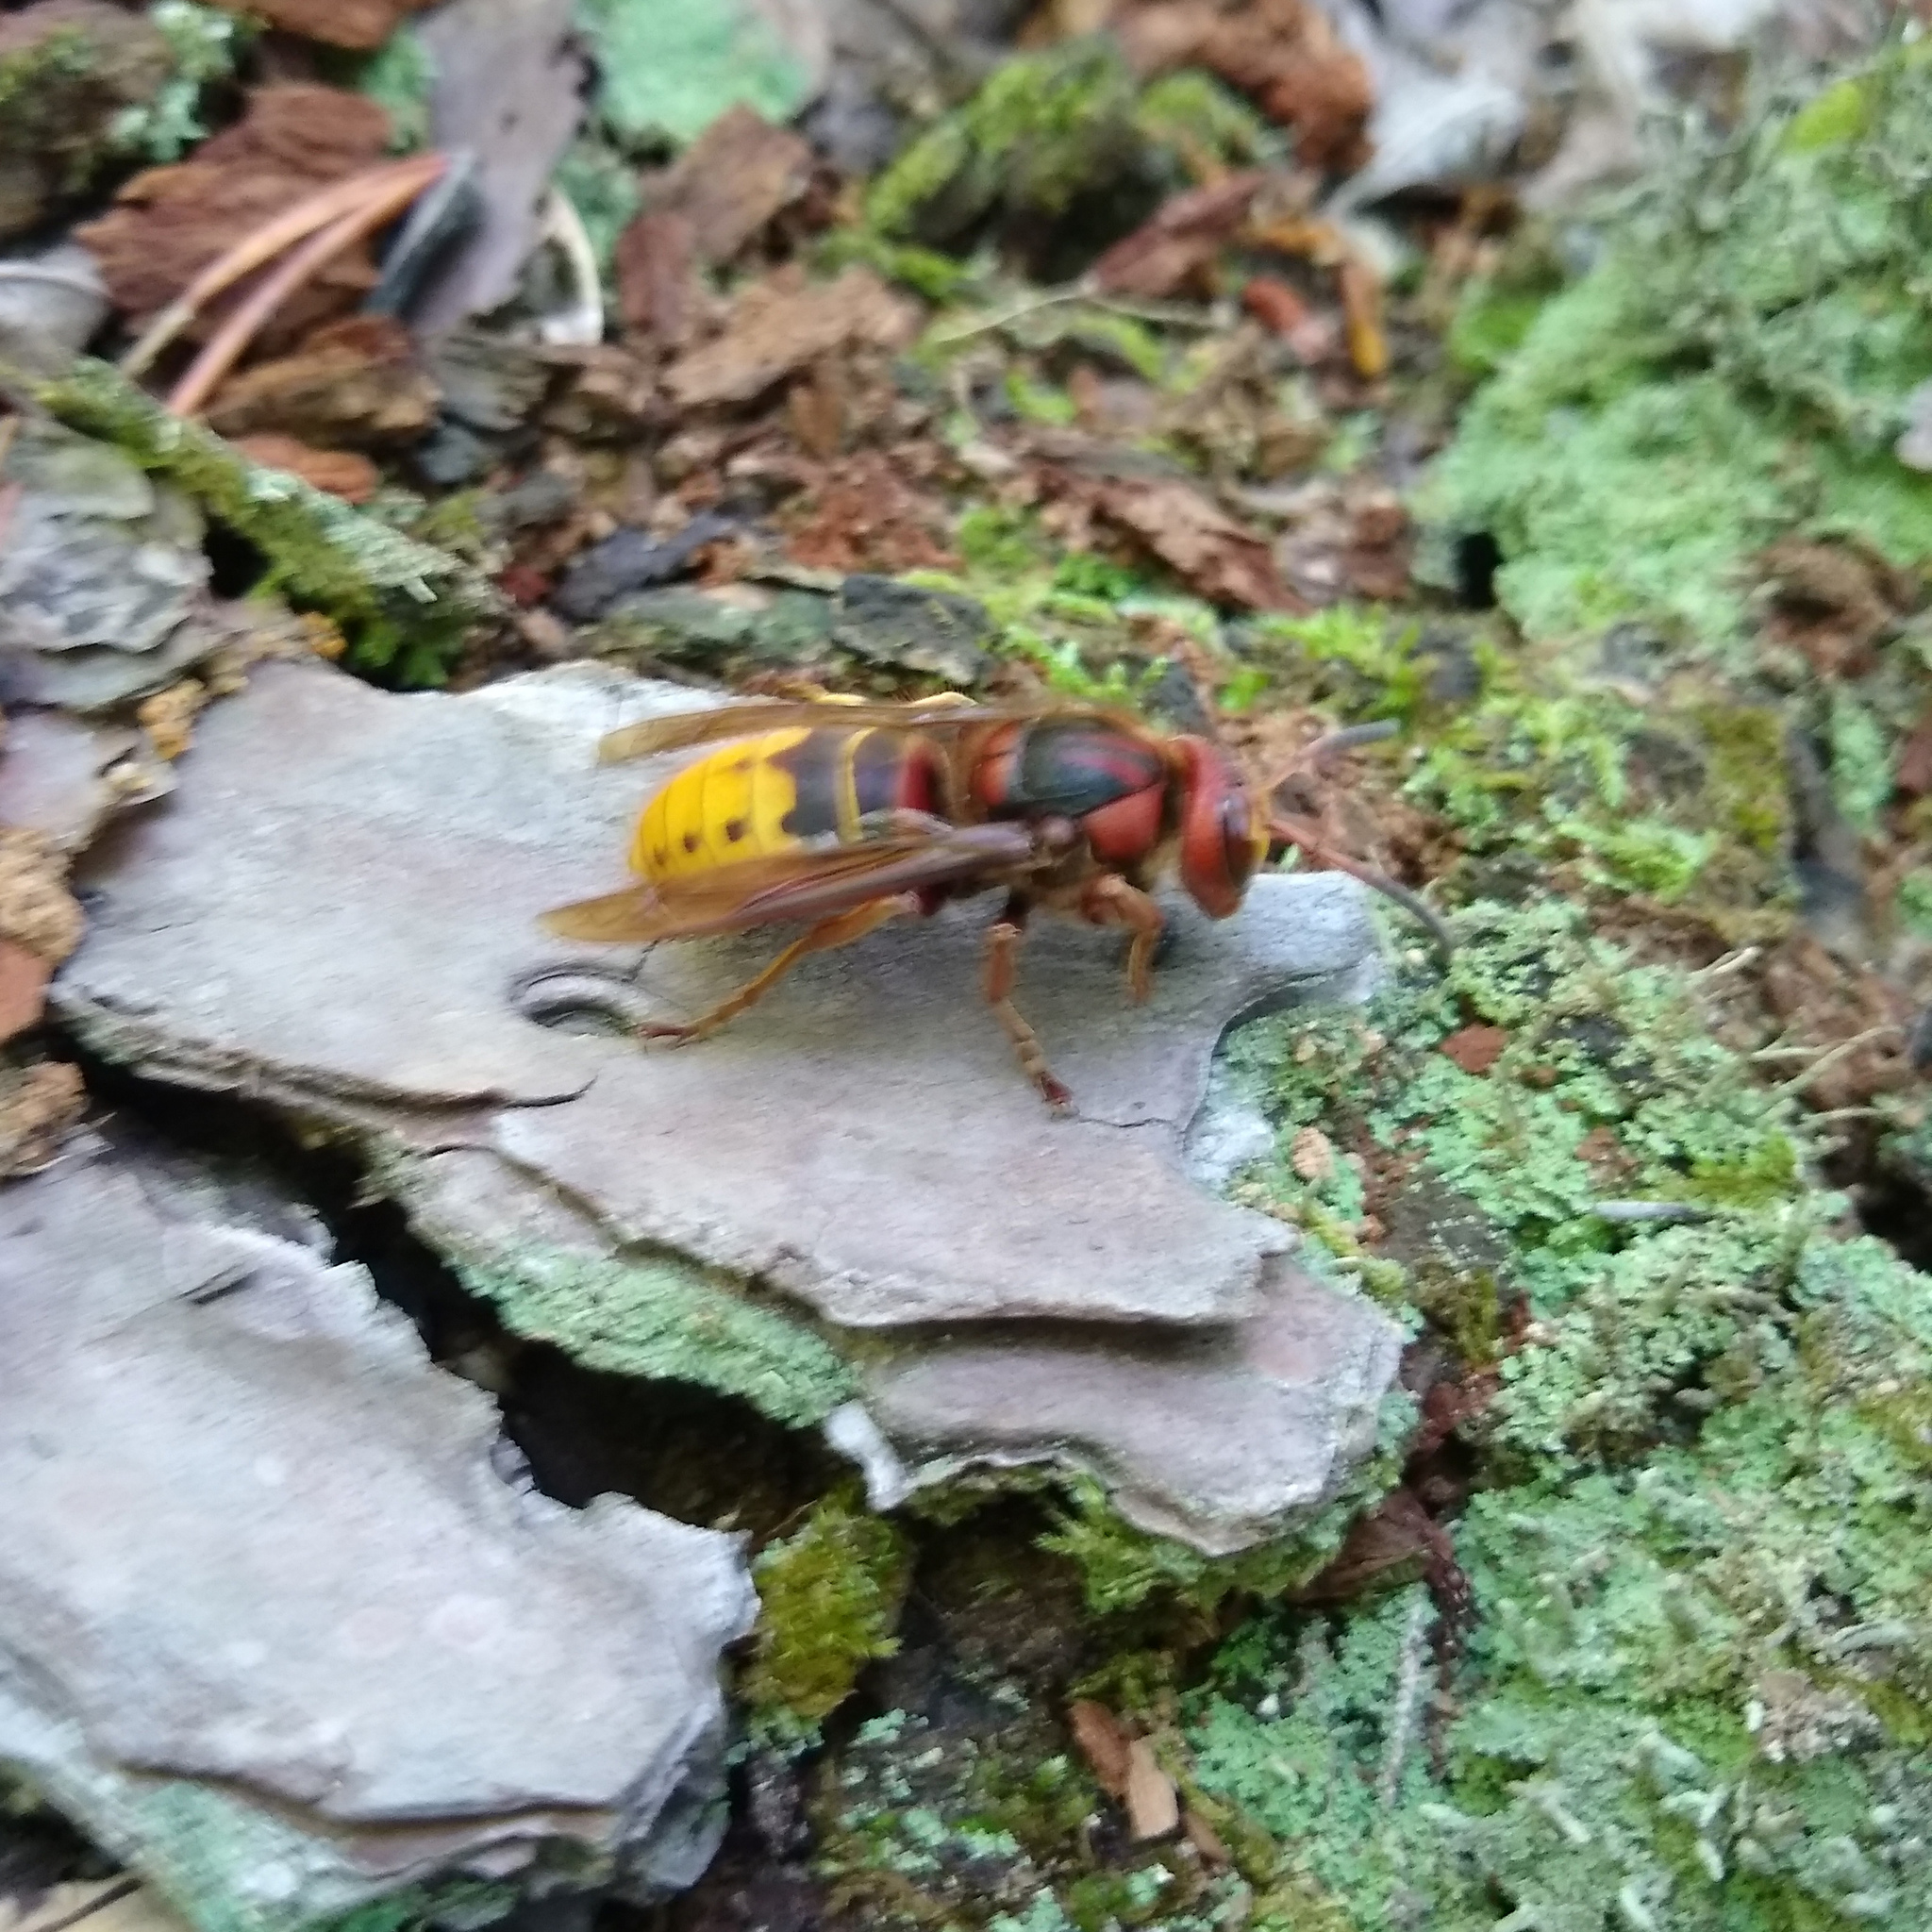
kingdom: Animalia
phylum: Arthropoda
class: Insecta
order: Hymenoptera
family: Vespidae
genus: Vespa
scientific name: Vespa crabro
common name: Hornet
